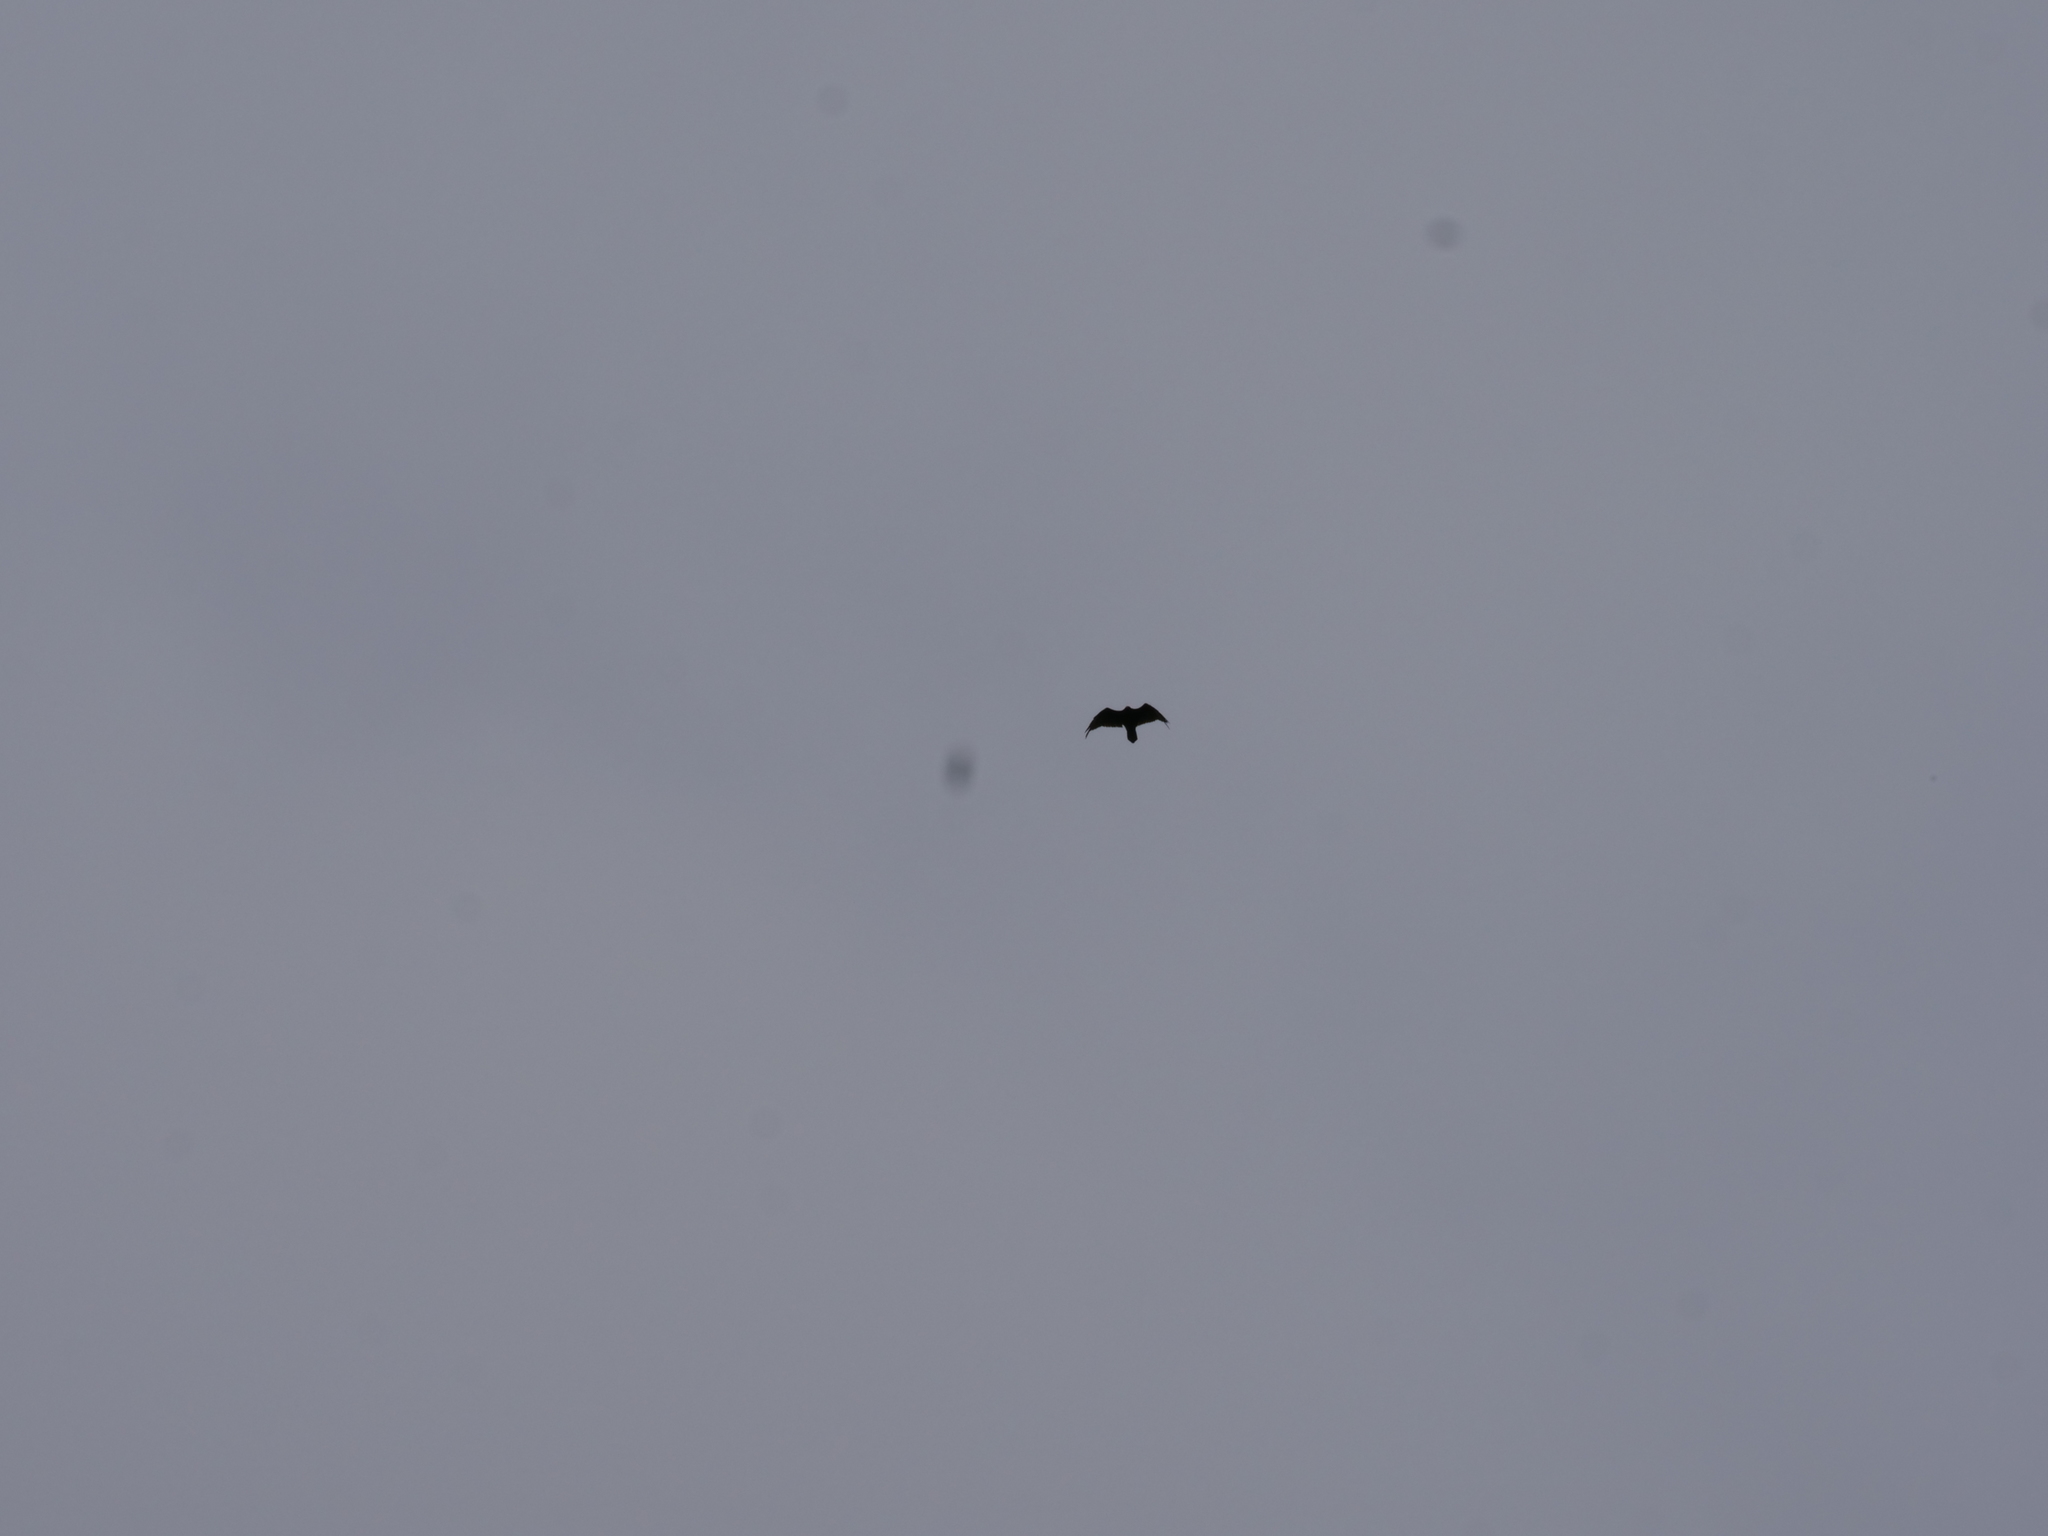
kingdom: Animalia
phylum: Chordata
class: Aves
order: Accipitriformes
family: Cathartidae
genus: Coragyps
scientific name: Coragyps atratus
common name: Black vulture
